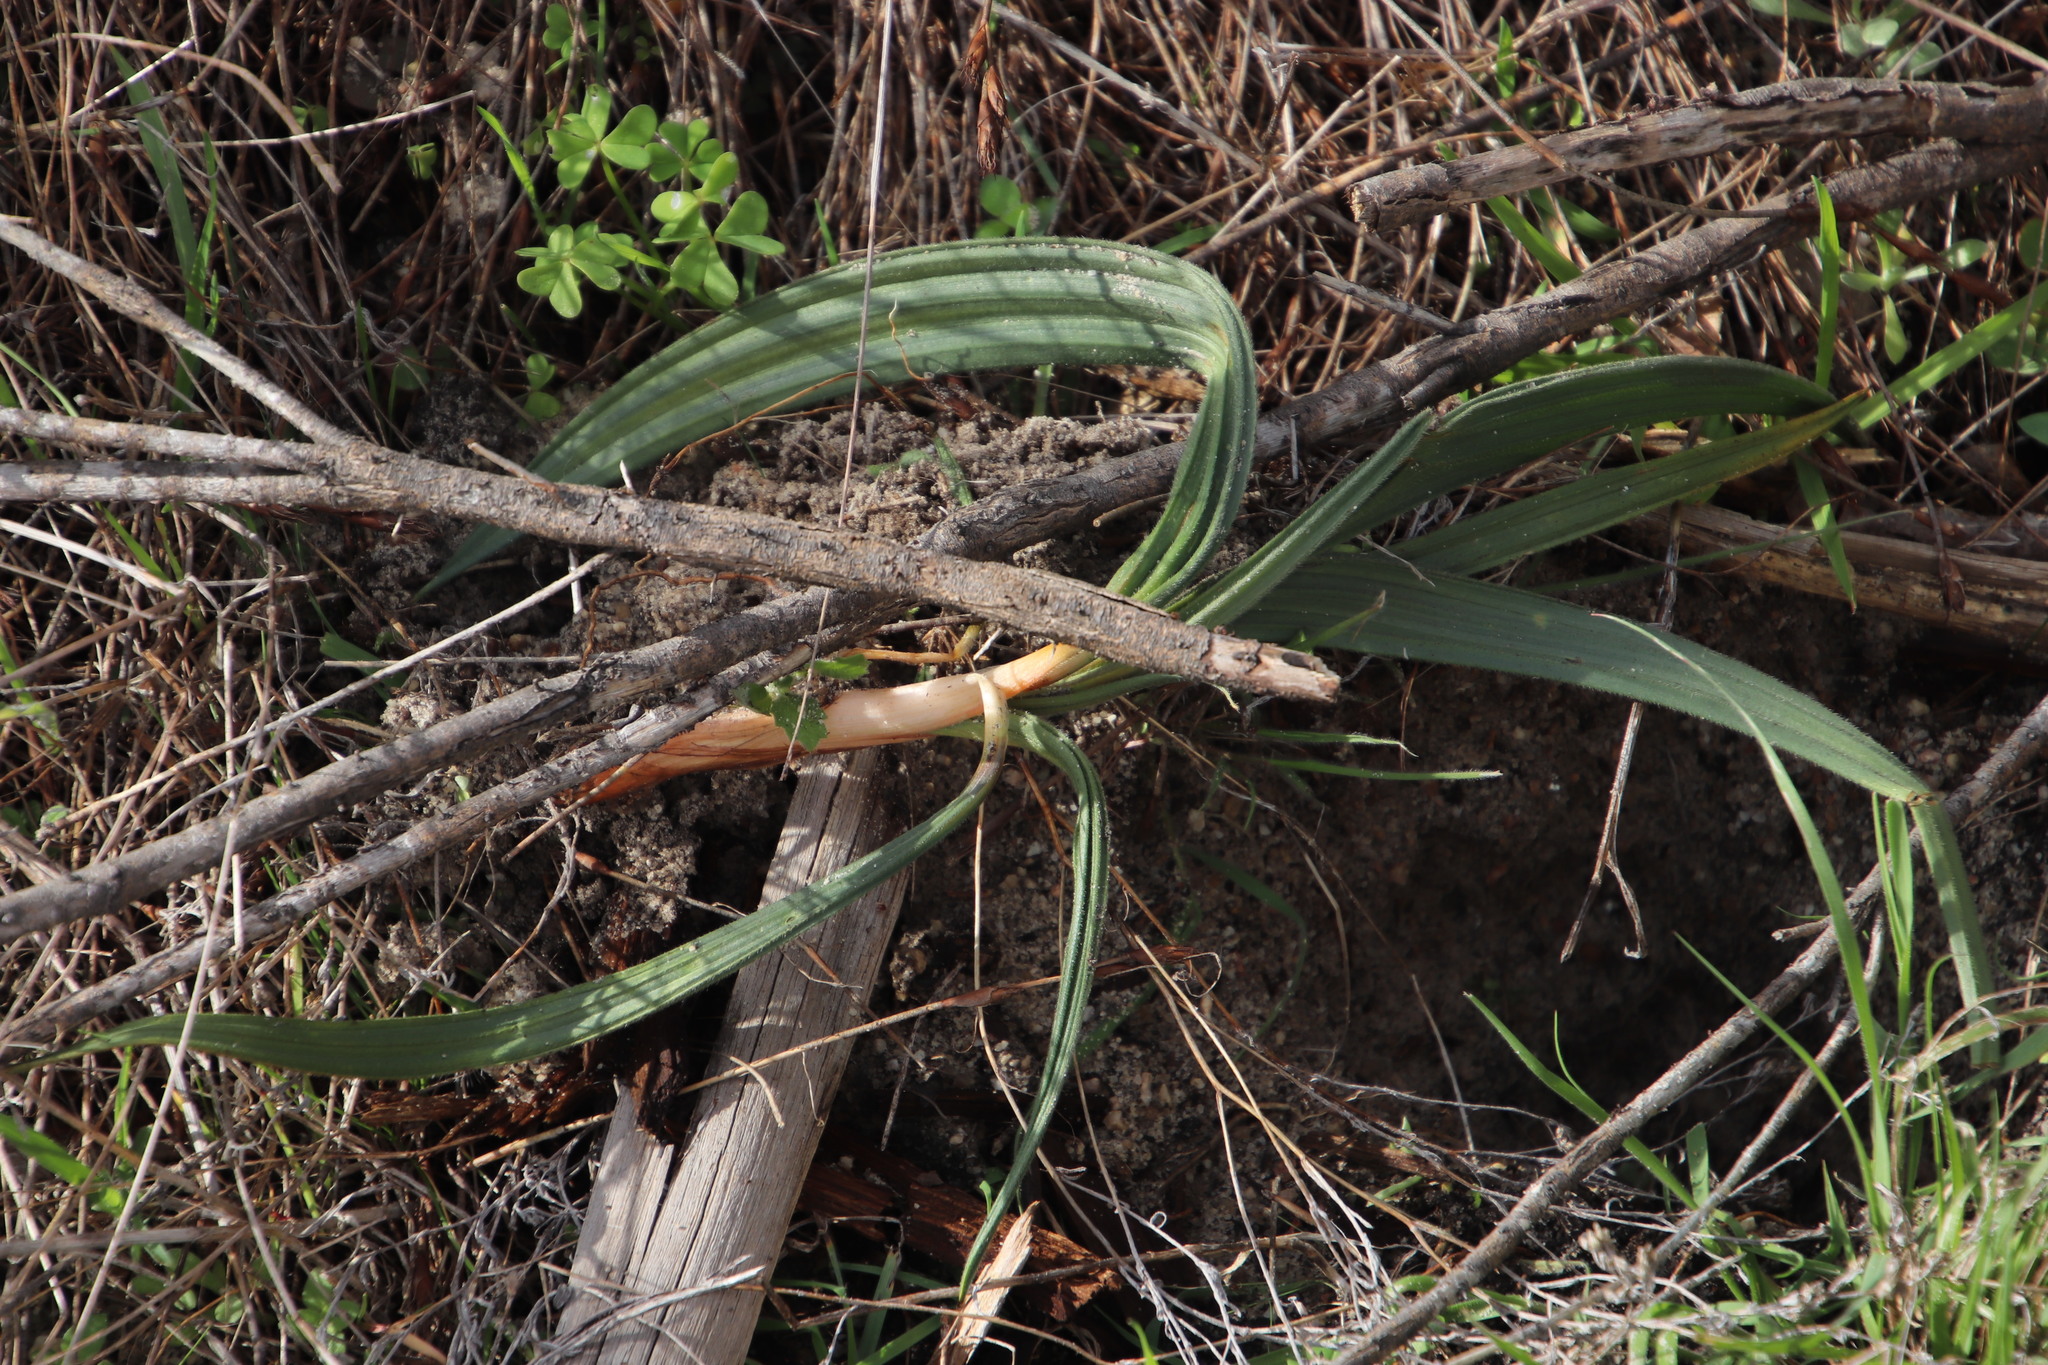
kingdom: Plantae
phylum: Tracheophyta
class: Liliopsida
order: Commelinales
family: Haemodoraceae
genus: Wachendorfia
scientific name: Wachendorfia paniculata
